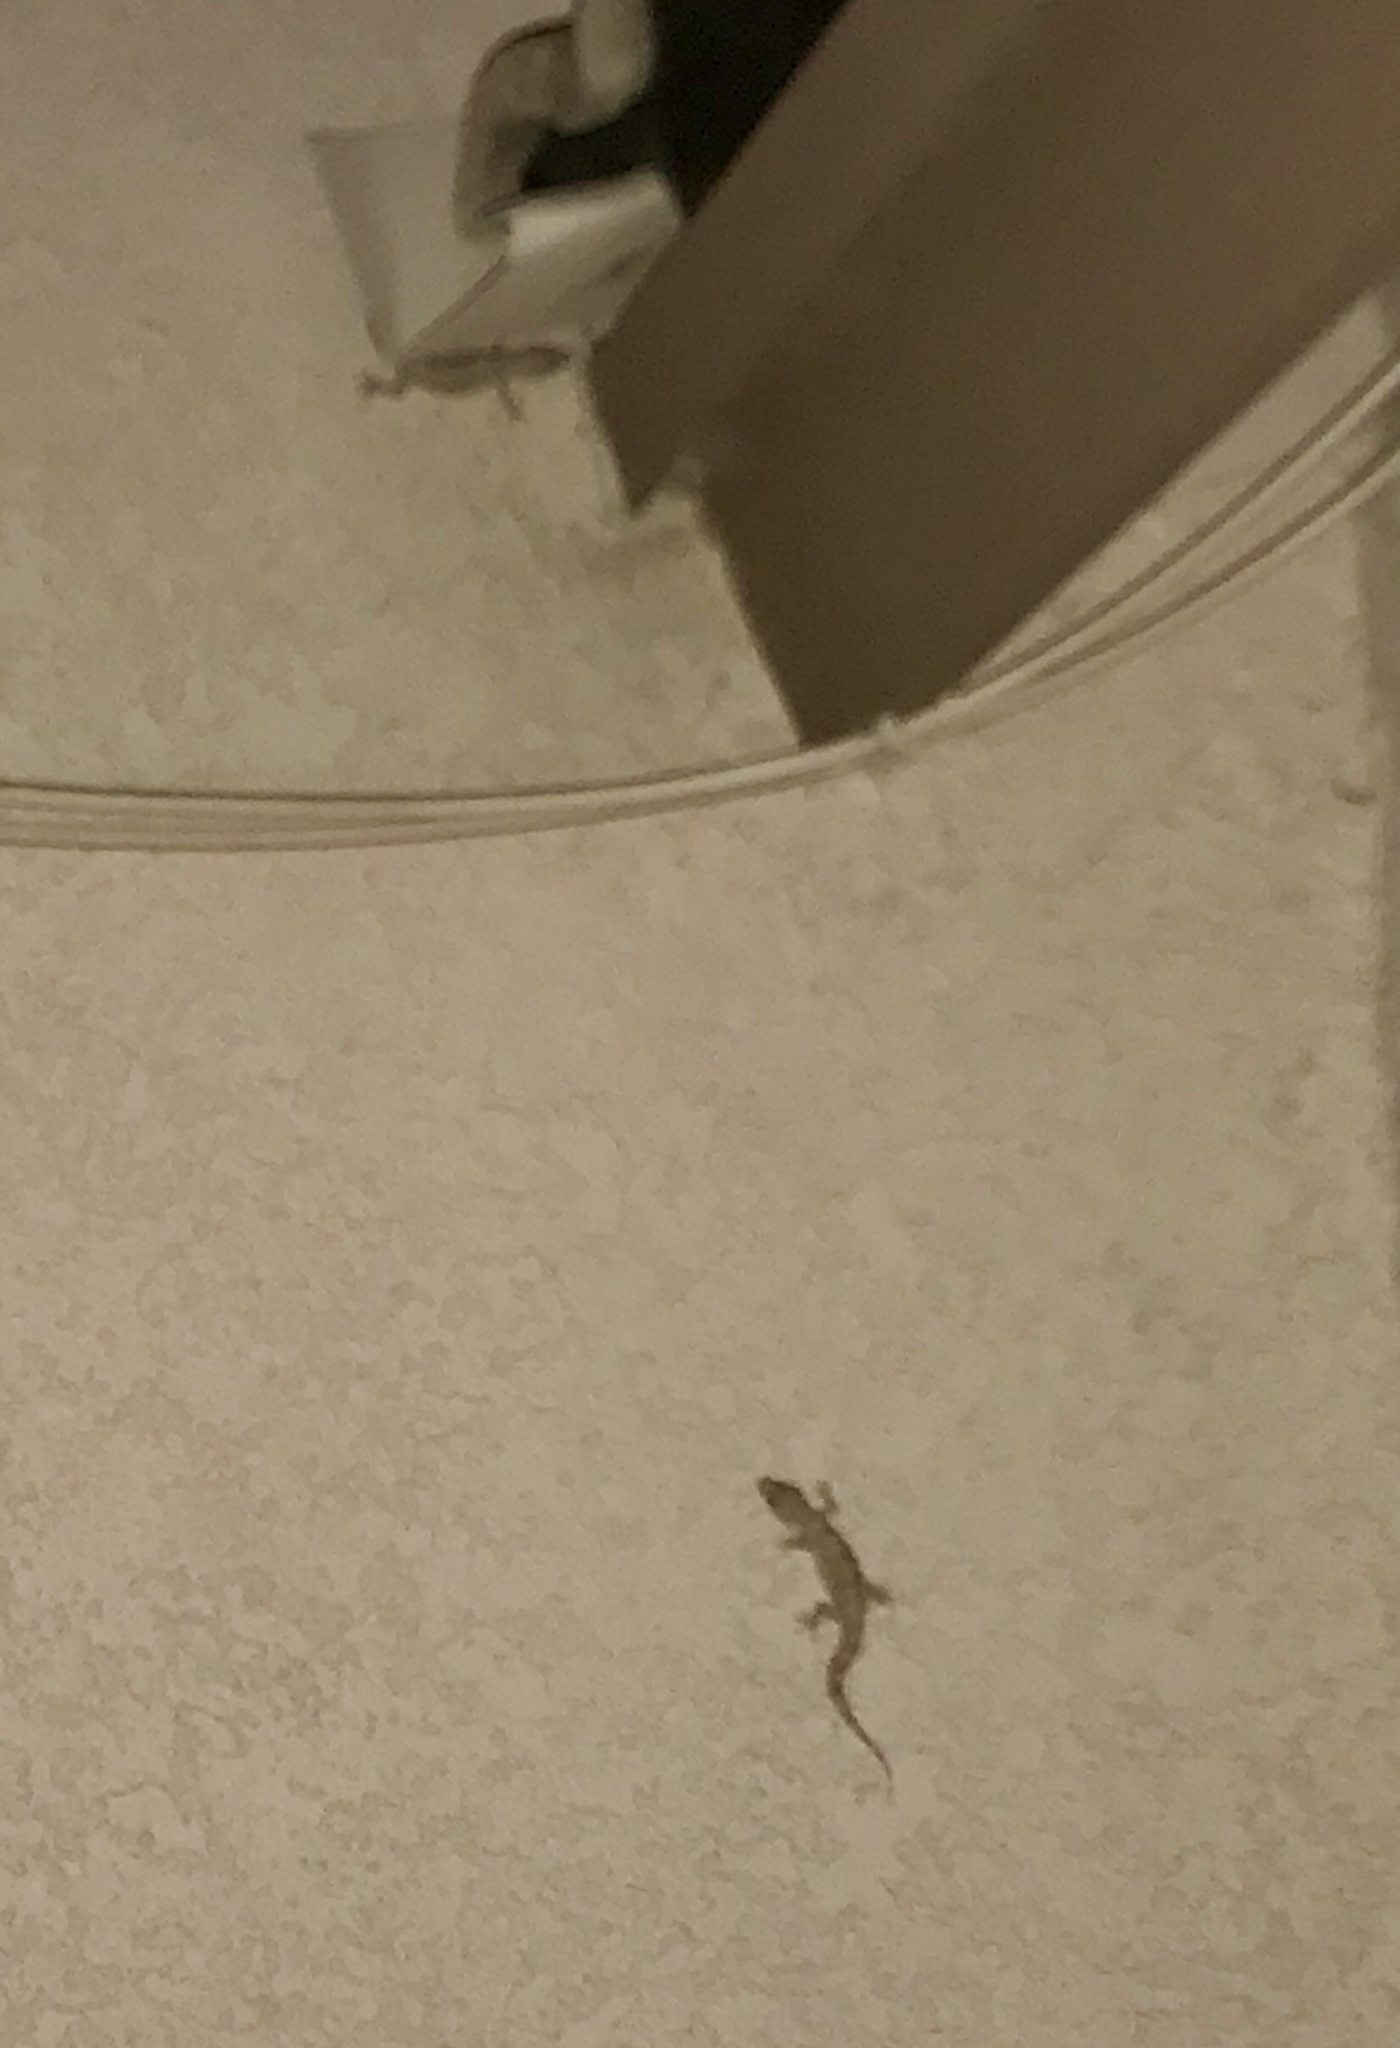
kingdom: Animalia
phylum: Chordata
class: Squamata
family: Gekkonidae
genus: Hemidactylus
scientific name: Hemidactylus turcicus
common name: Turkish gecko
